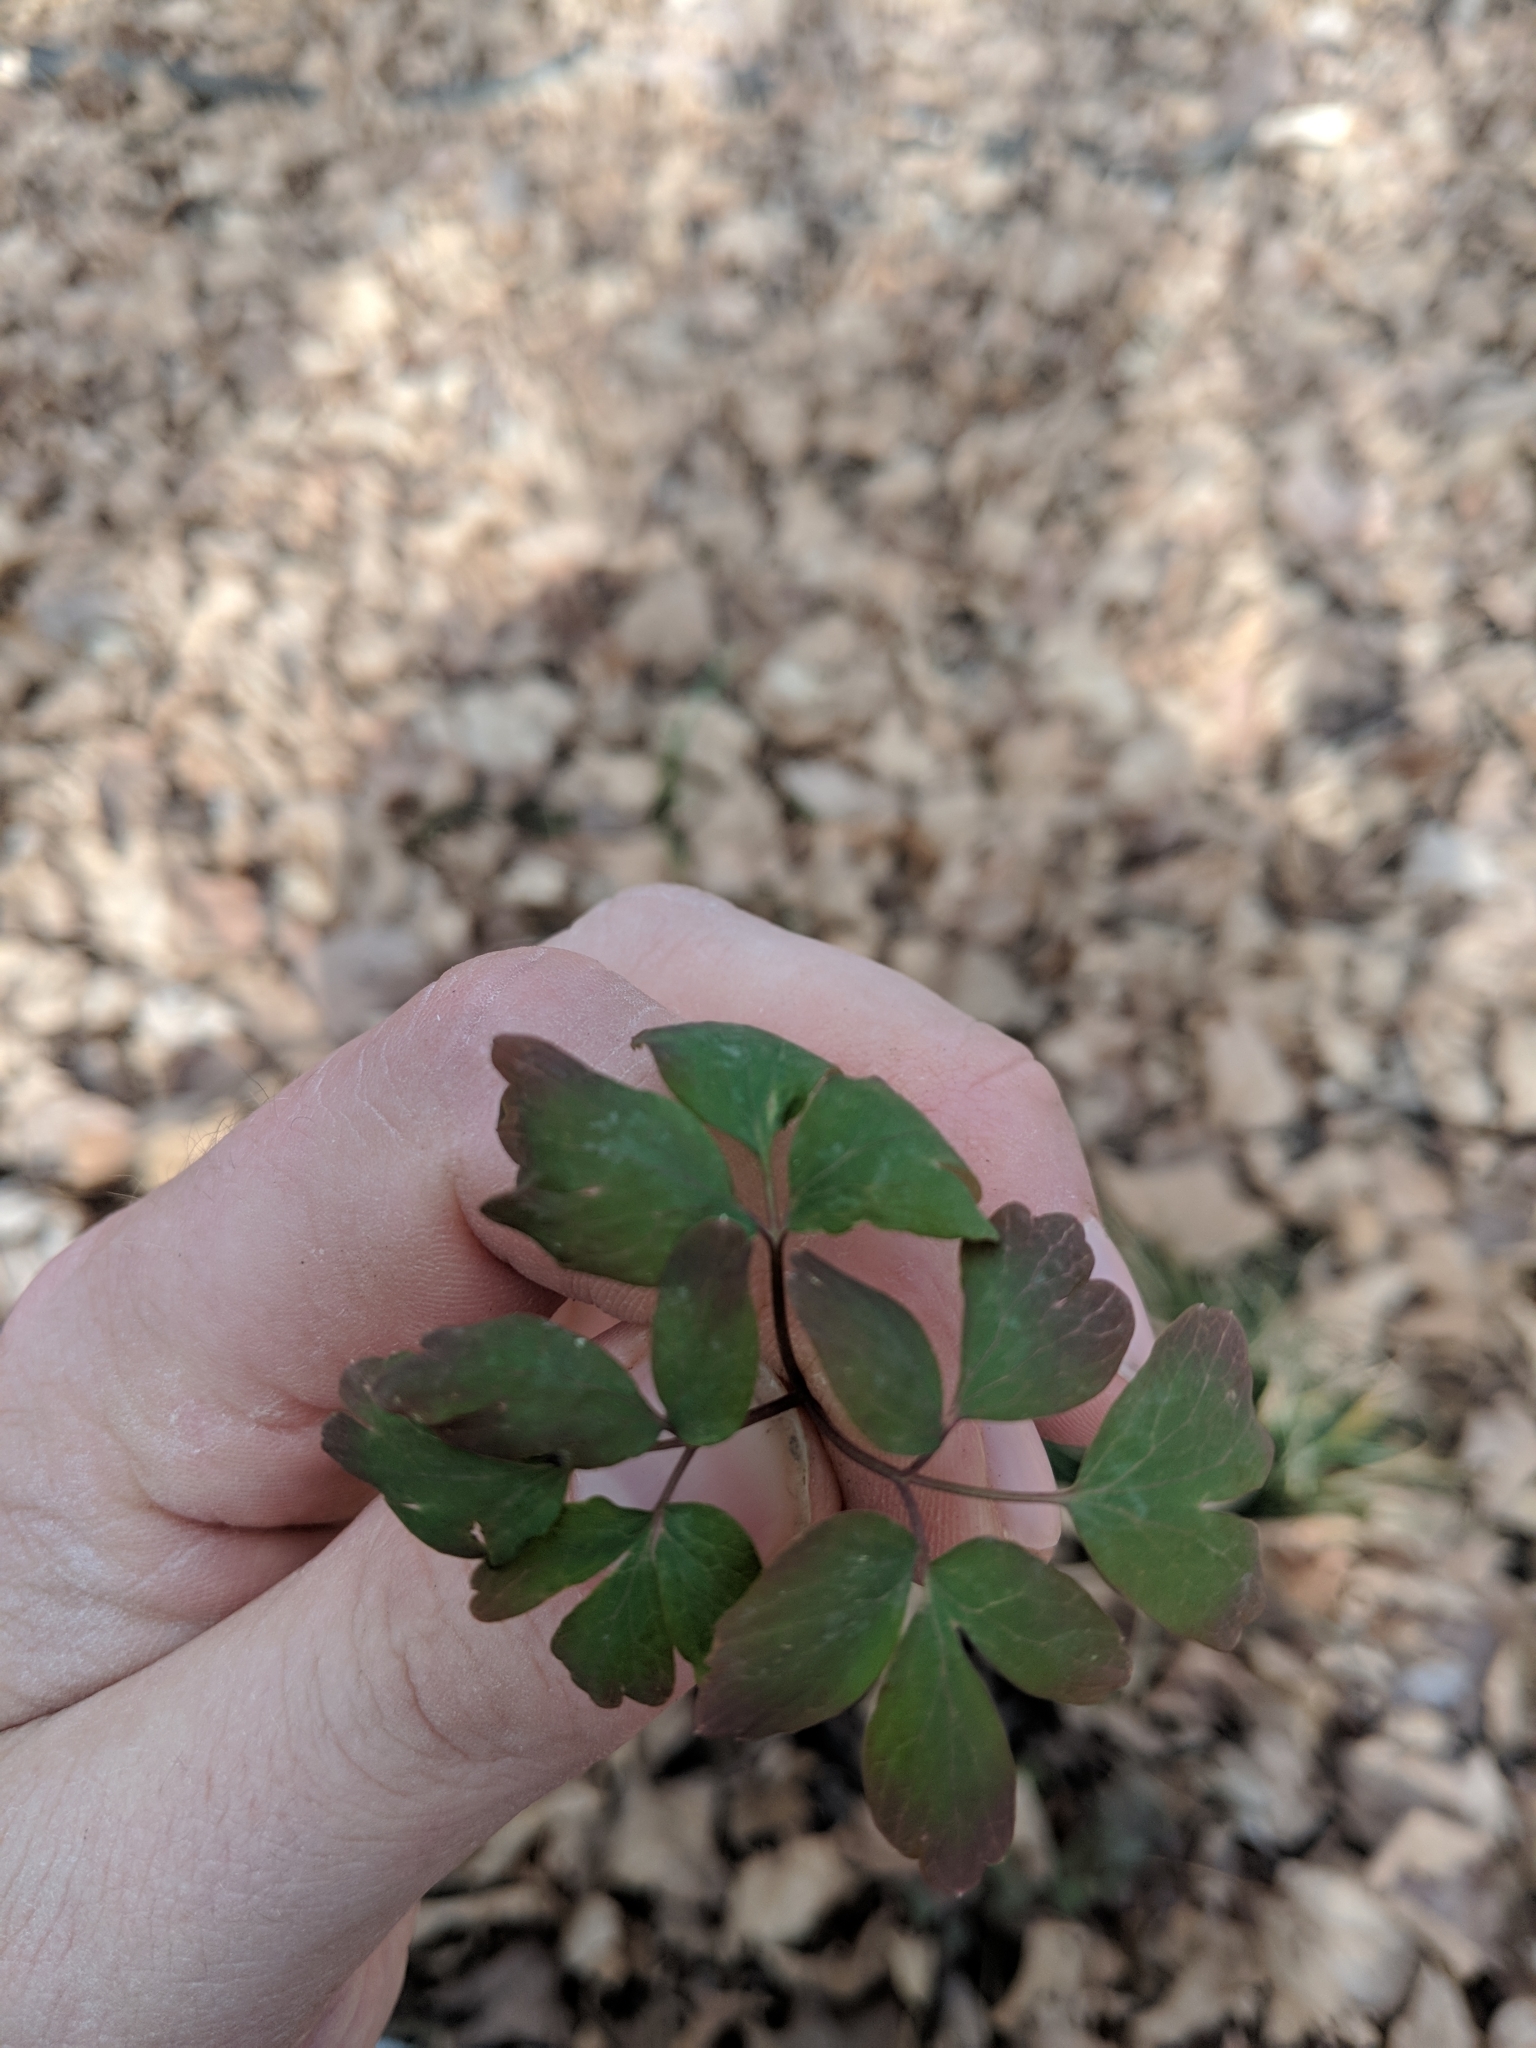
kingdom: Plantae
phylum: Tracheophyta
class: Magnoliopsida
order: Ranunculales
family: Ranunculaceae
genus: Enemion
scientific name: Enemion biternatum
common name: Eastern false rue-anemone
